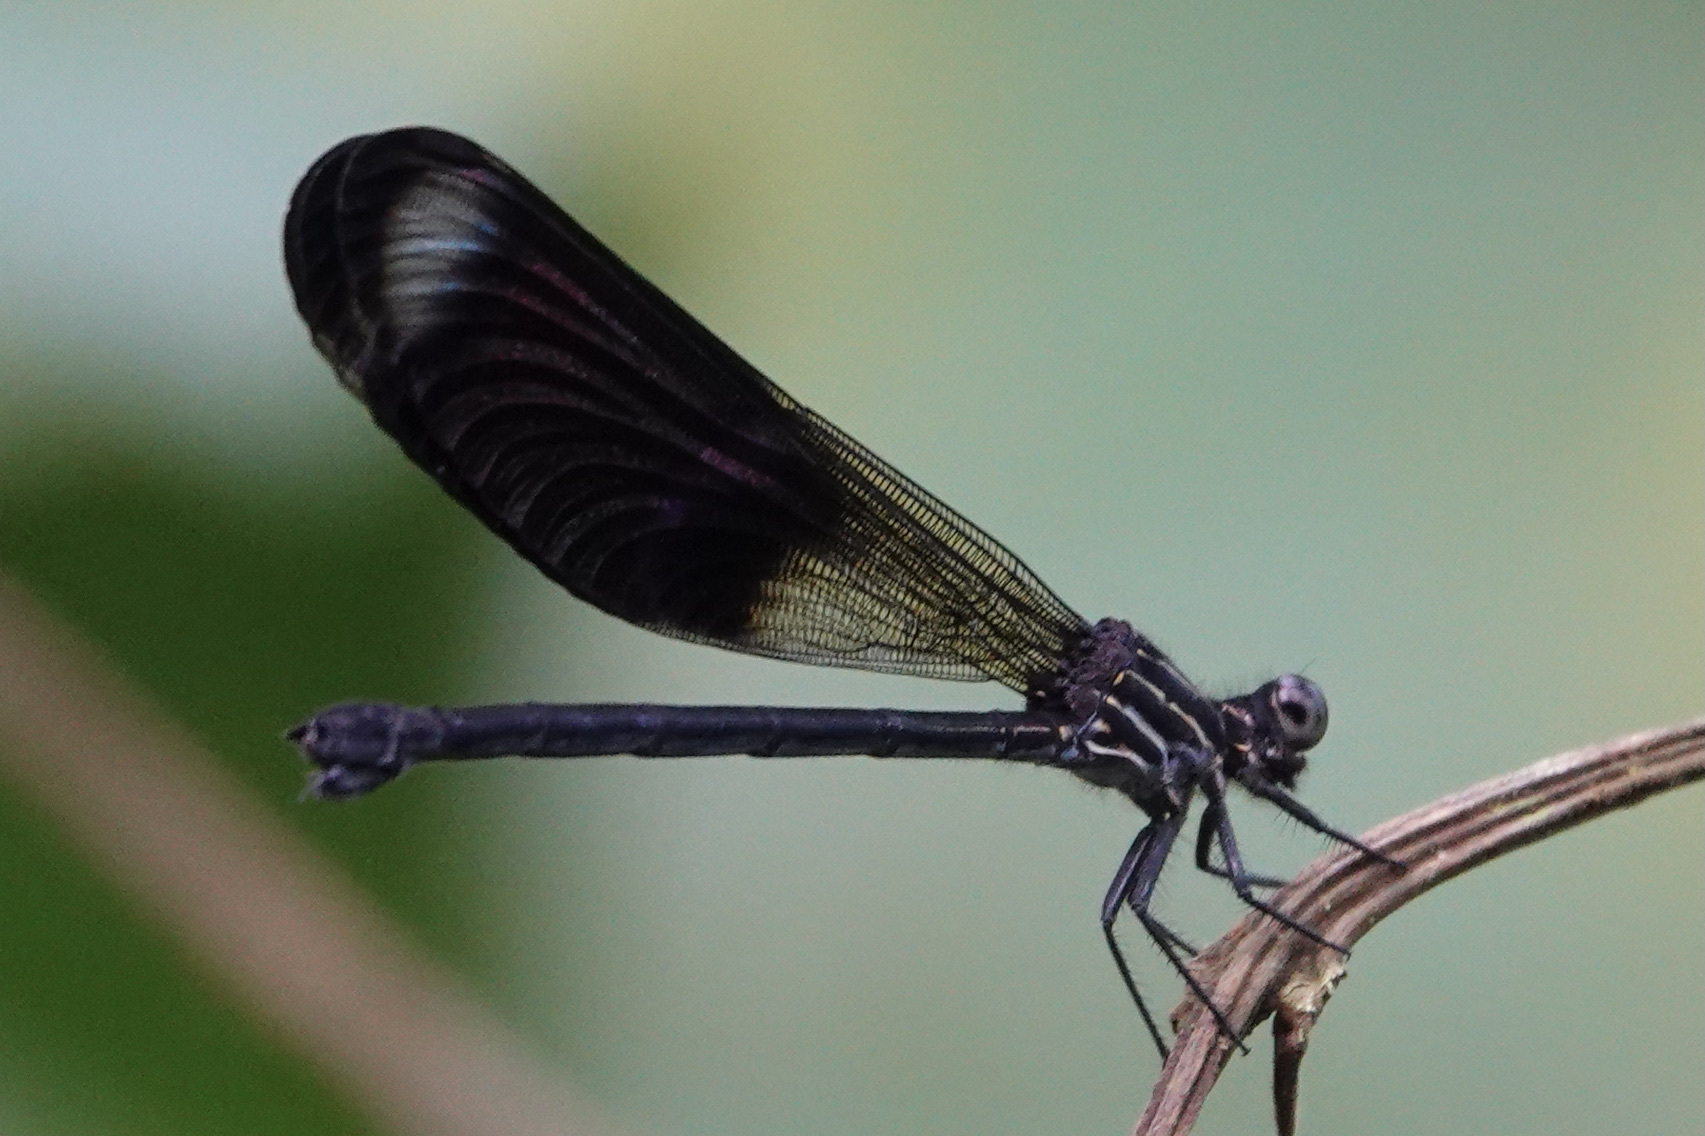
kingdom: Animalia
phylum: Arthropoda
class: Insecta
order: Odonata
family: Polythoridae
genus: Polythore
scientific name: Polythore gigantea
